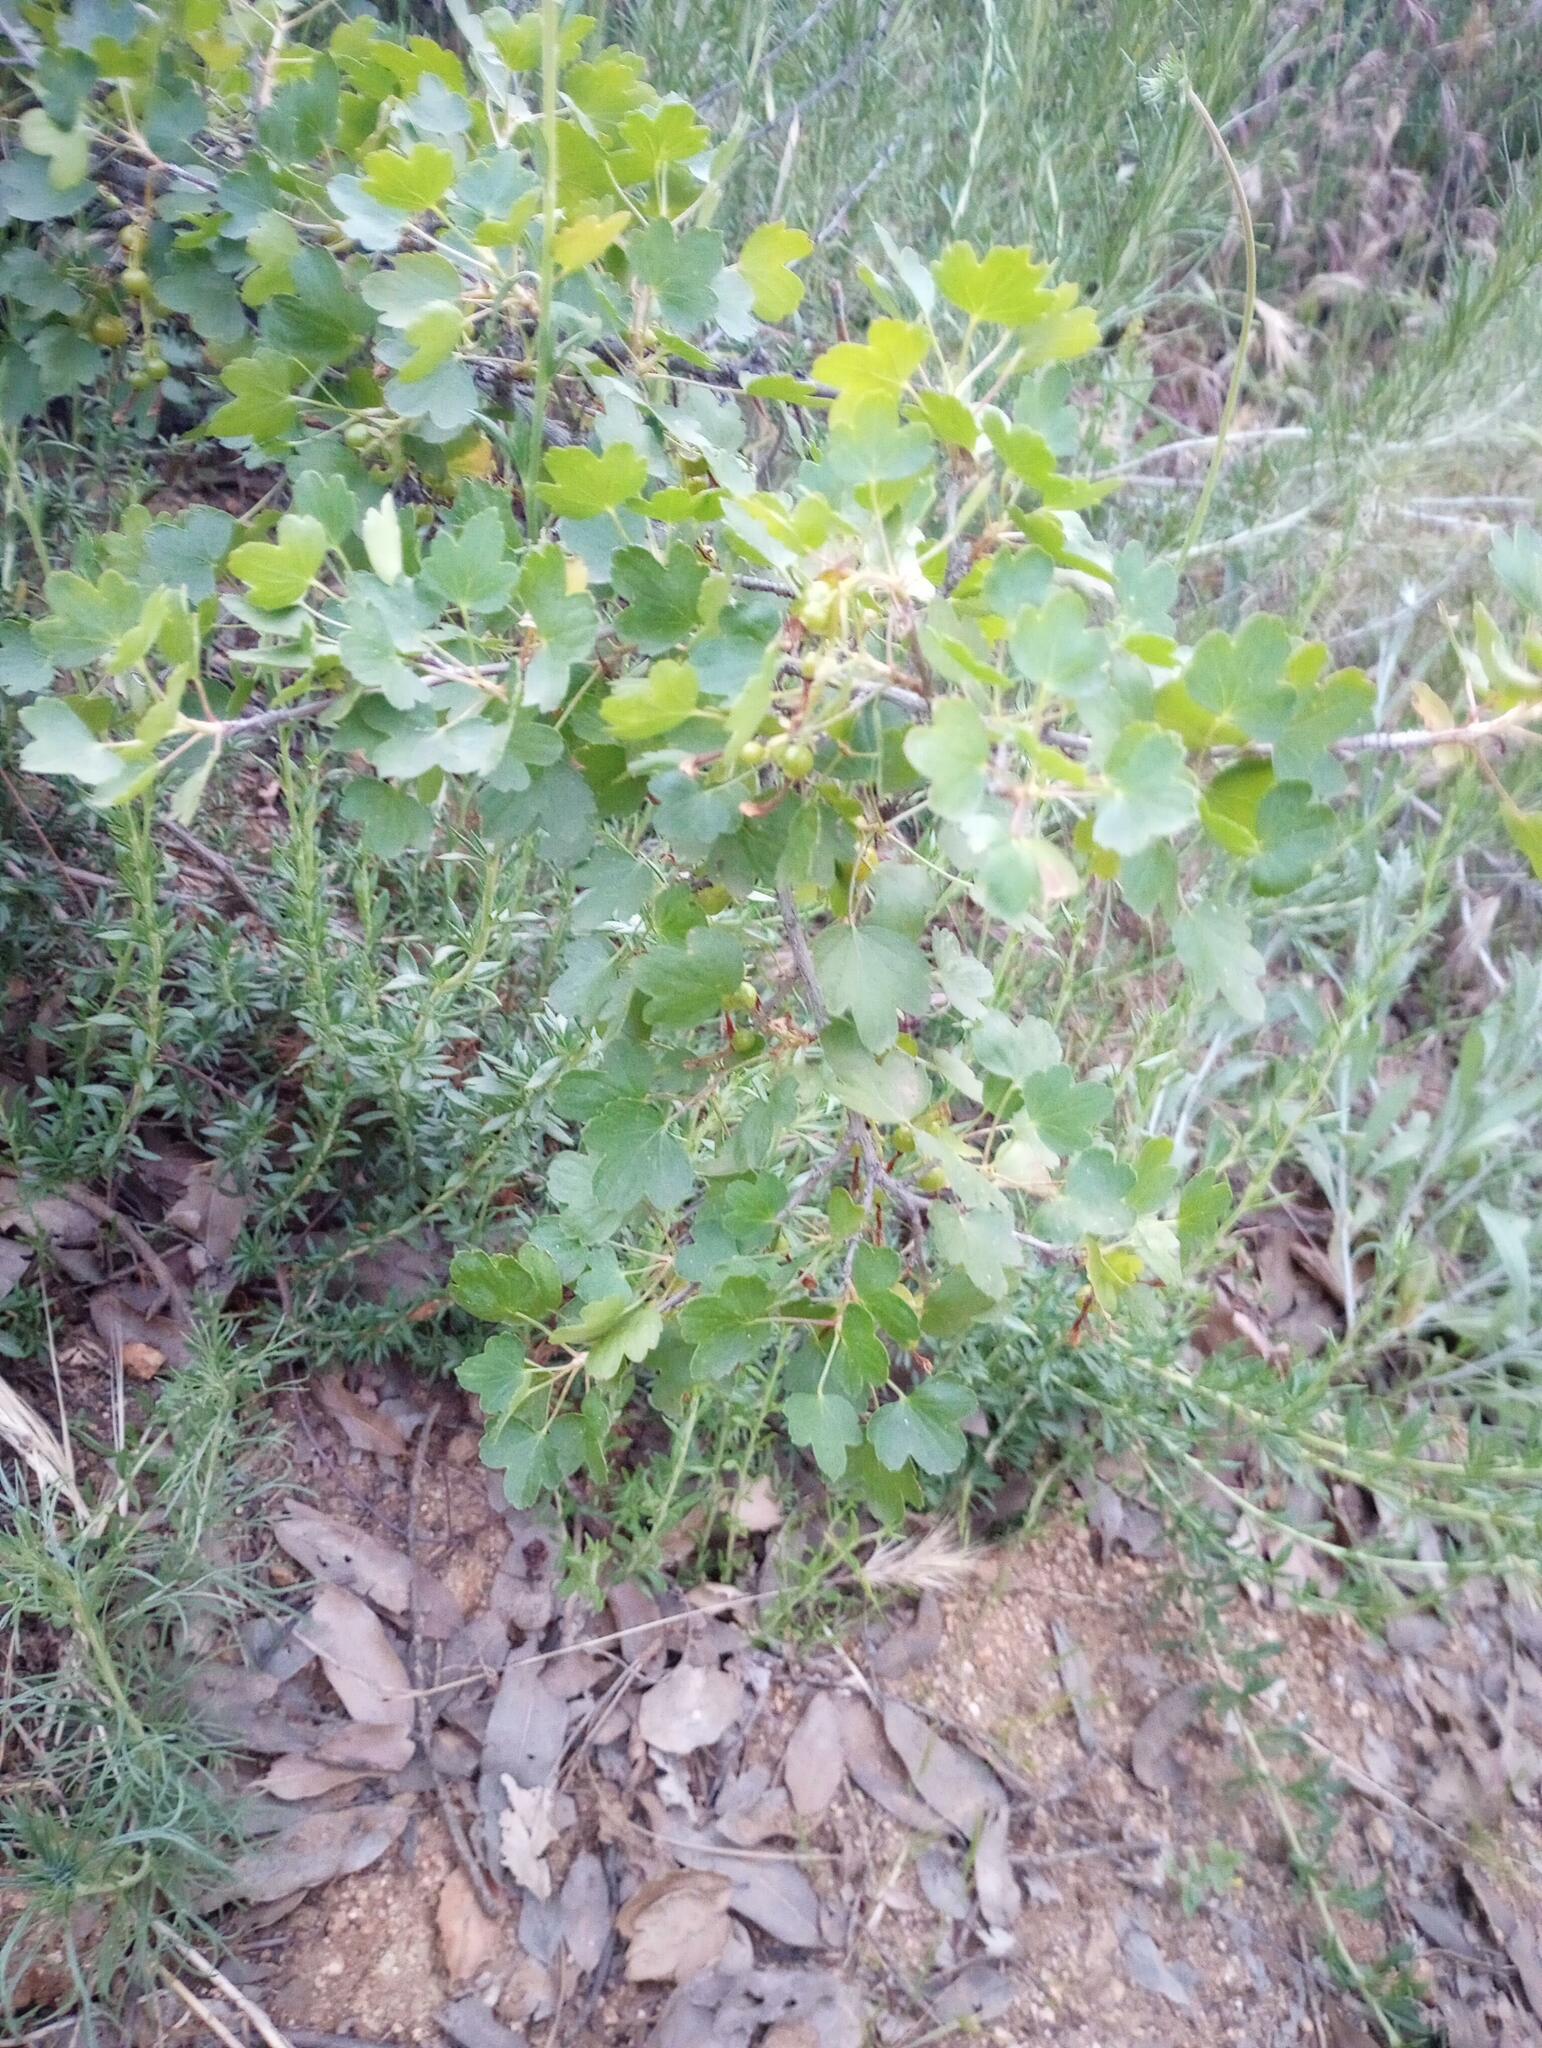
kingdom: Plantae
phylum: Tracheophyta
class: Magnoliopsida
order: Saxifragales
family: Grossulariaceae
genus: Ribes
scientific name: Ribes aureum
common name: Golden currant
